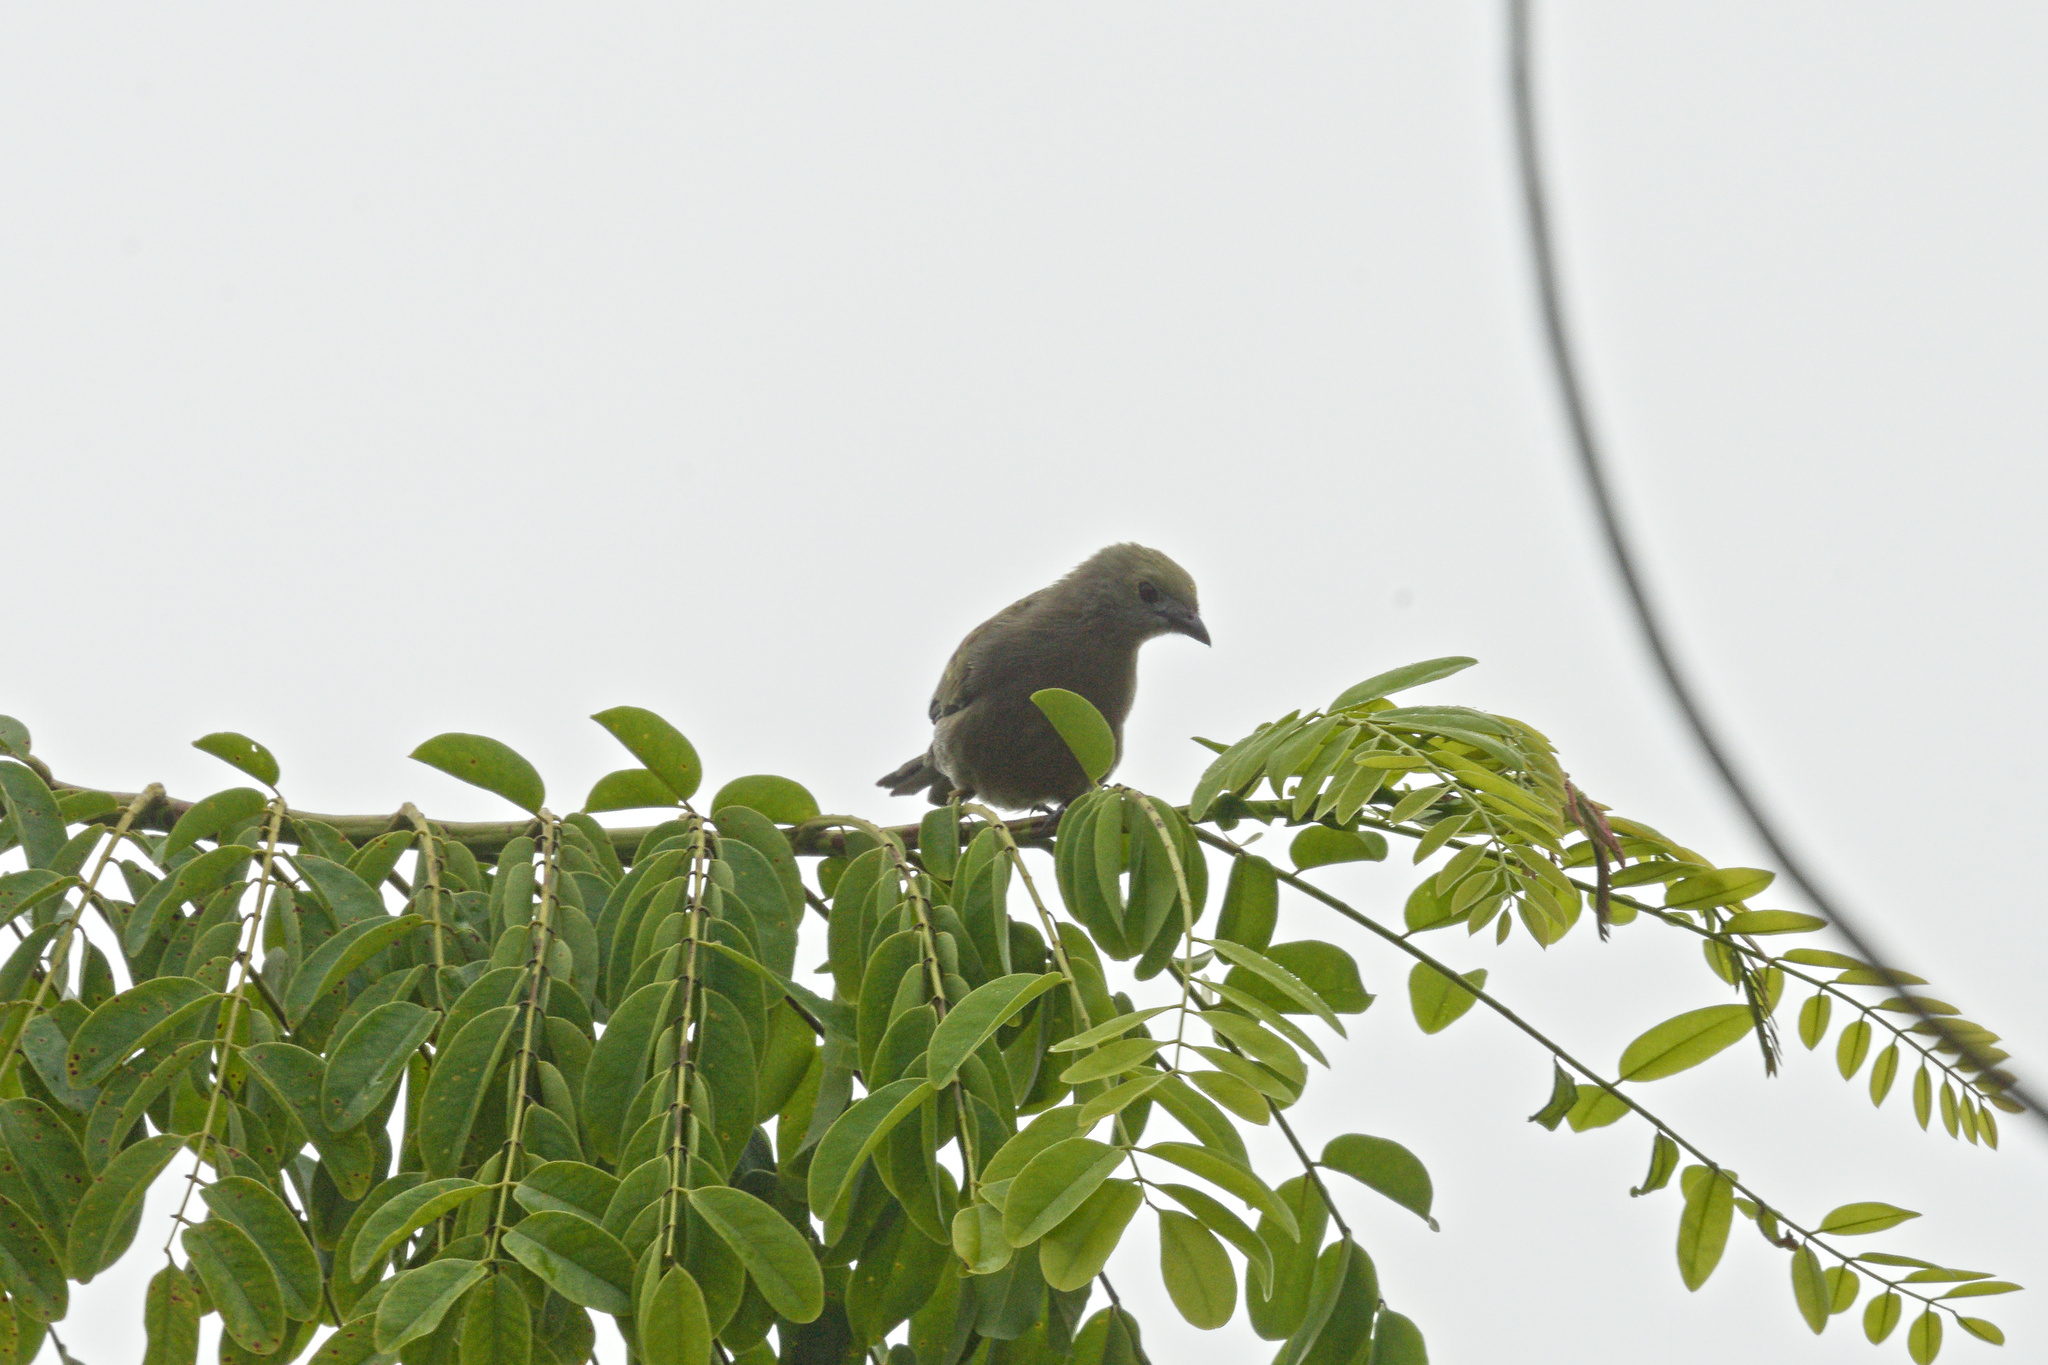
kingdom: Animalia
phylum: Chordata
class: Aves
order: Passeriformes
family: Thraupidae
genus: Thraupis
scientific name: Thraupis palmarum
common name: Palm tanager
